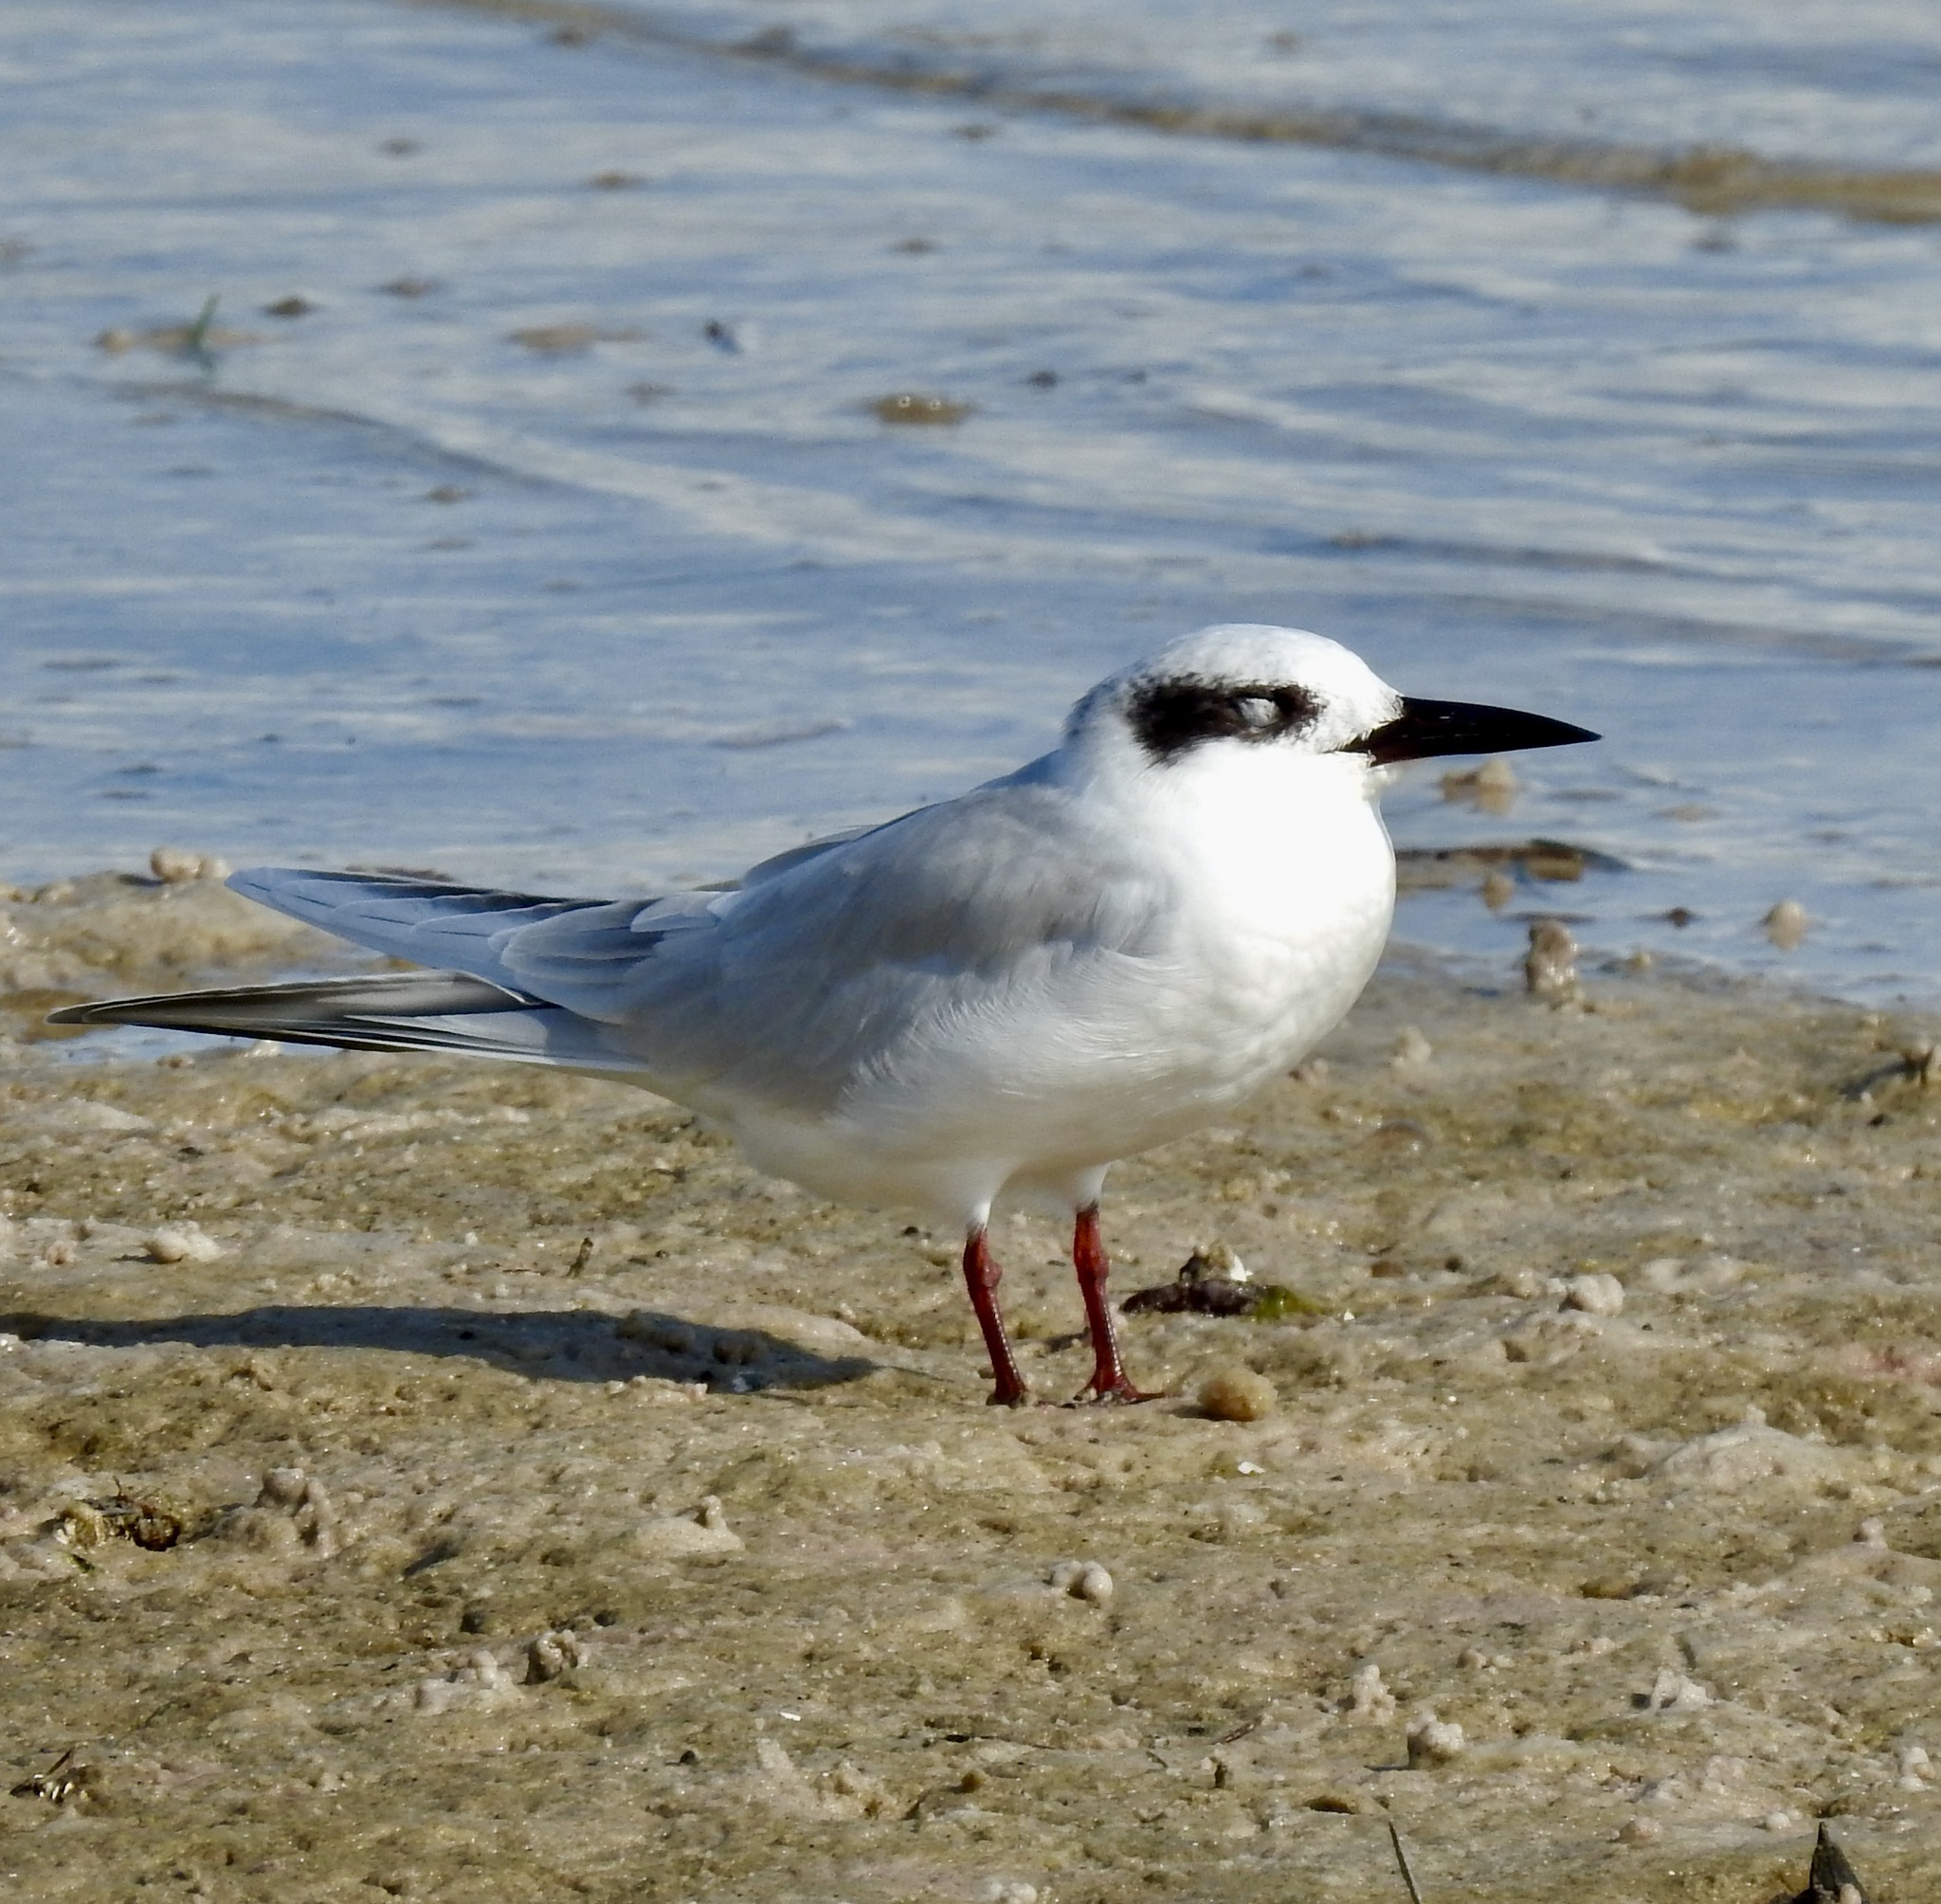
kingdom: Animalia
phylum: Chordata
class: Aves
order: Charadriiformes
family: Laridae
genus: Sterna
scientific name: Sterna forsteri
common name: Forster's tern
